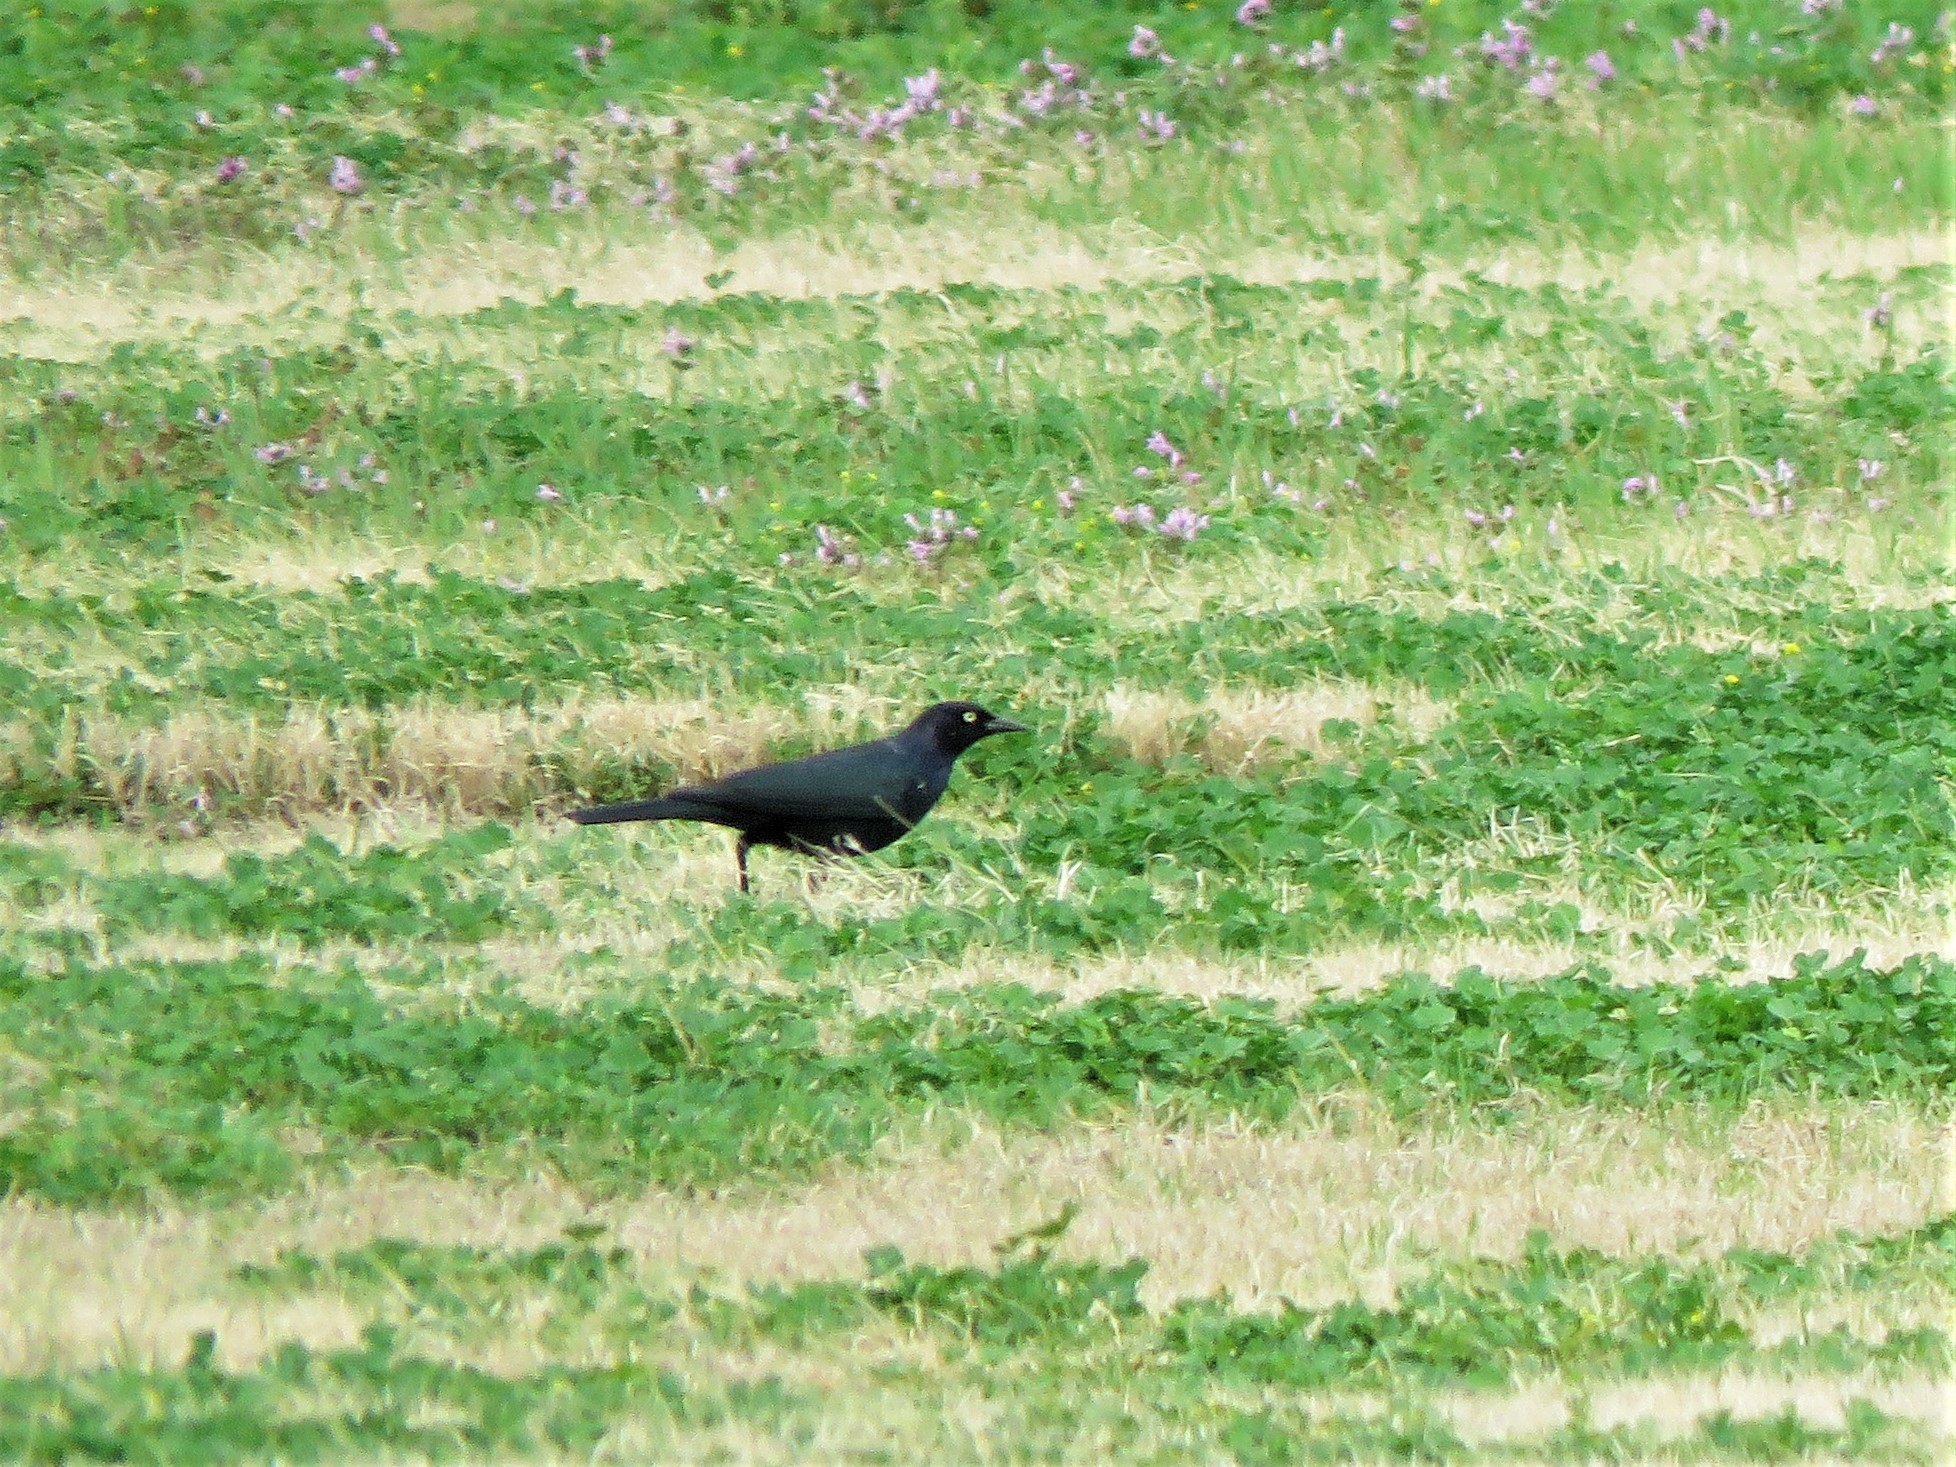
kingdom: Animalia
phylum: Chordata
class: Aves
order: Passeriformes
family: Icteridae
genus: Euphagus
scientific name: Euphagus cyanocephalus
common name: Brewer's blackbird
